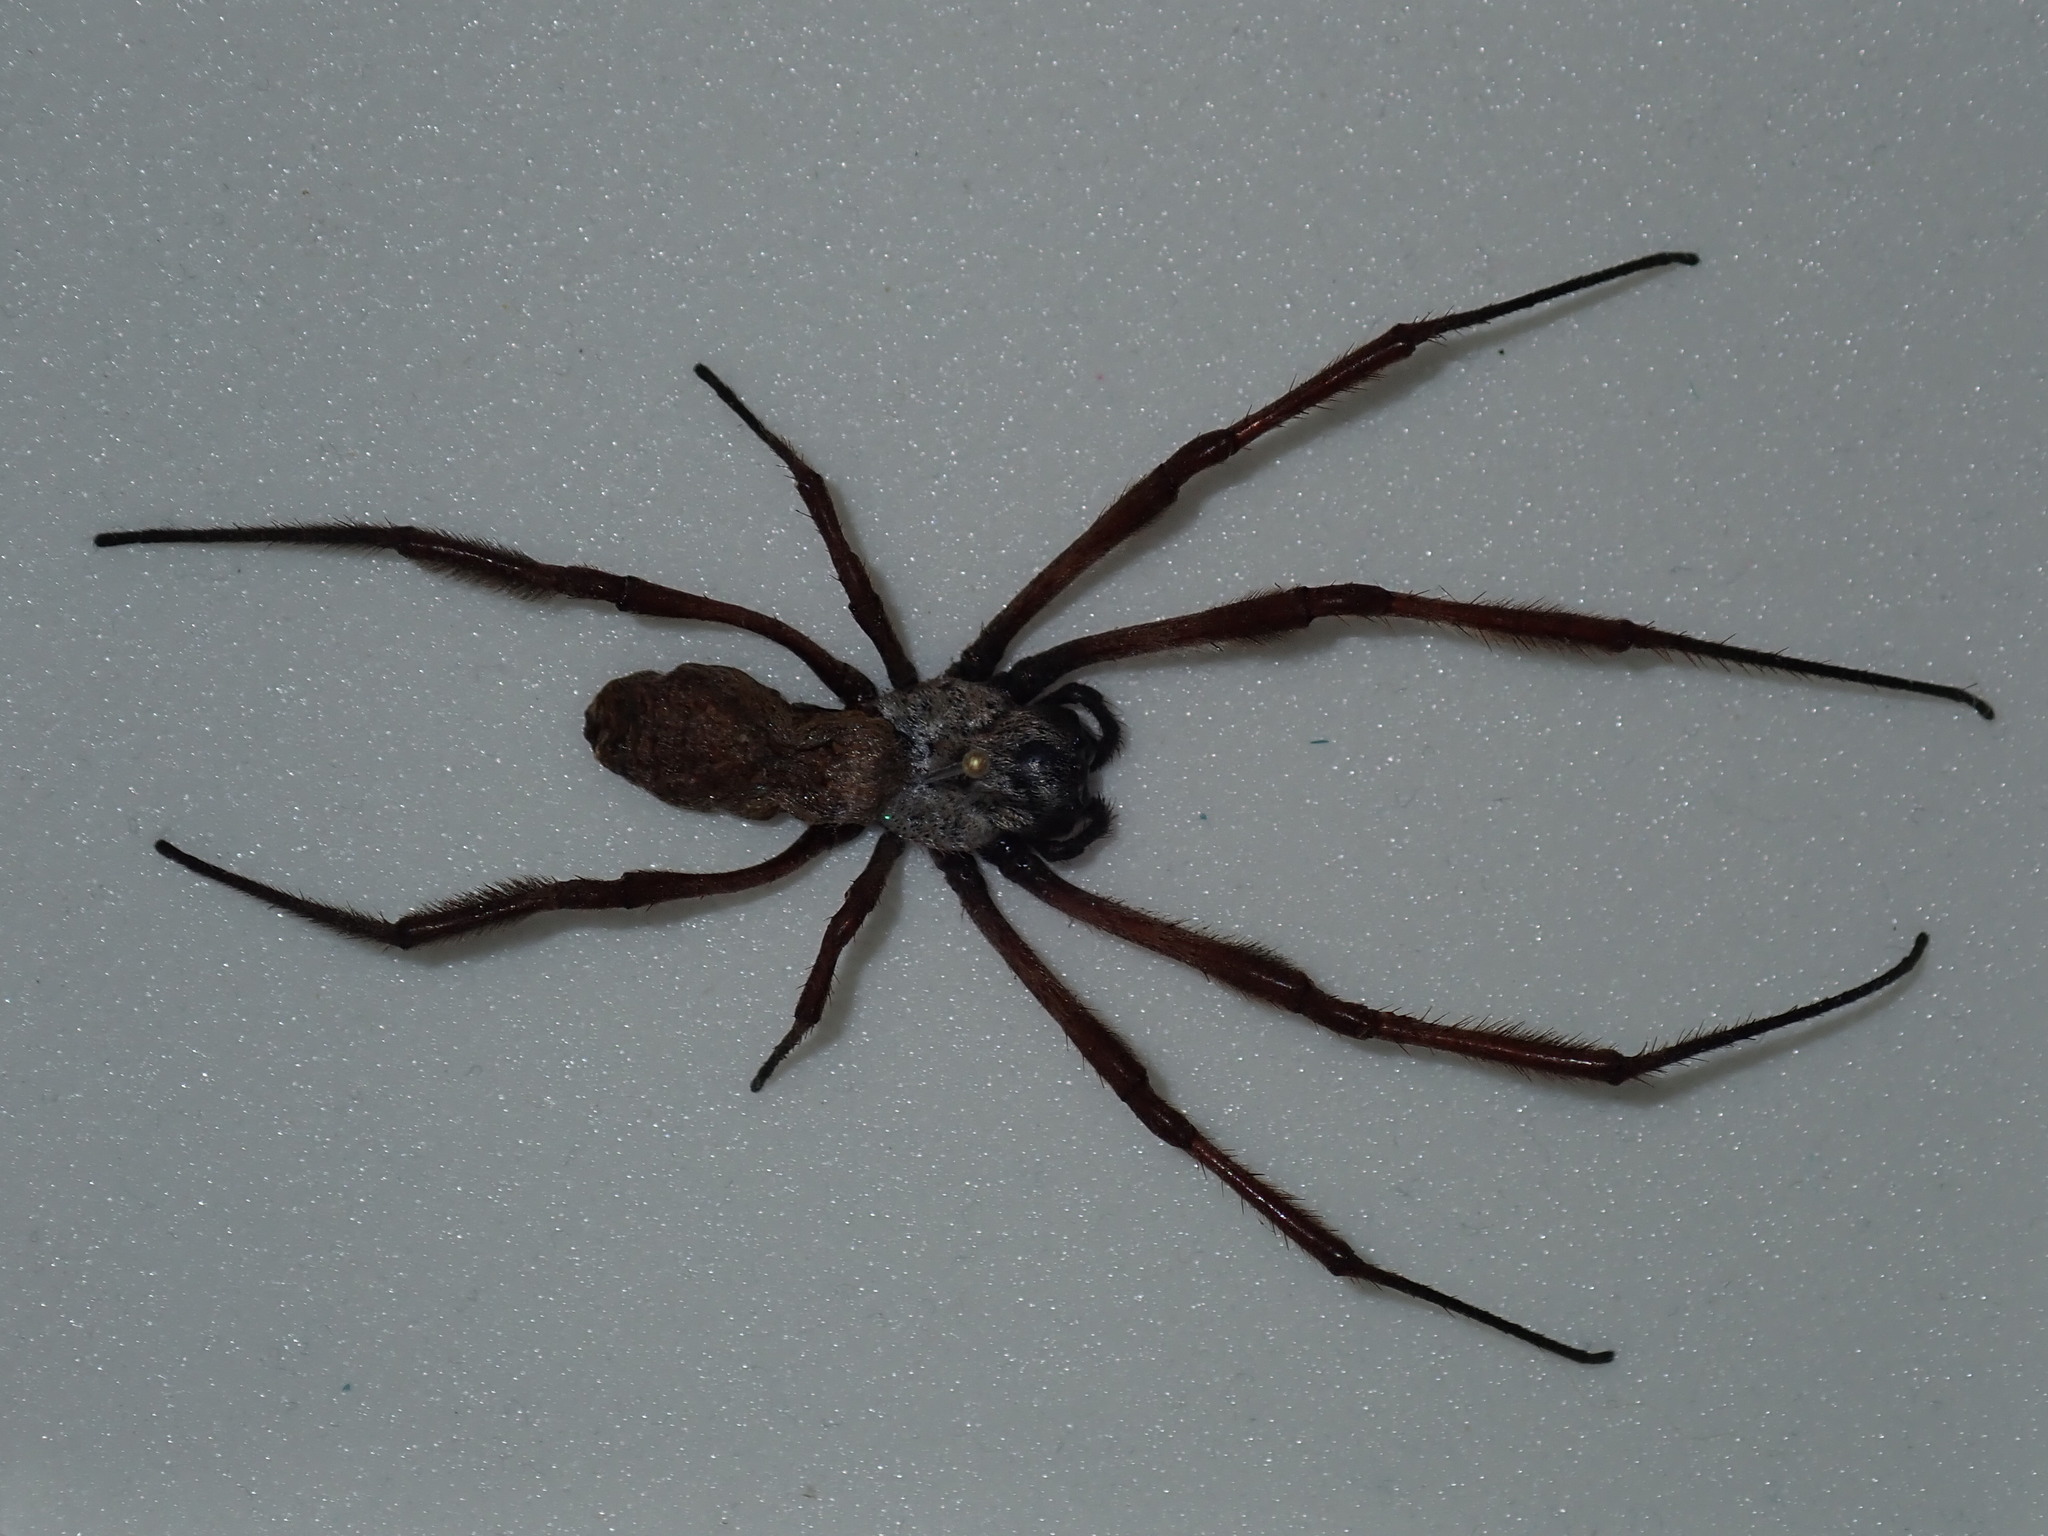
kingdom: Animalia
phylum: Arthropoda
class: Arachnida
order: Araneae
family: Araneidae
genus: Trichonephila
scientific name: Trichonephila edulis
